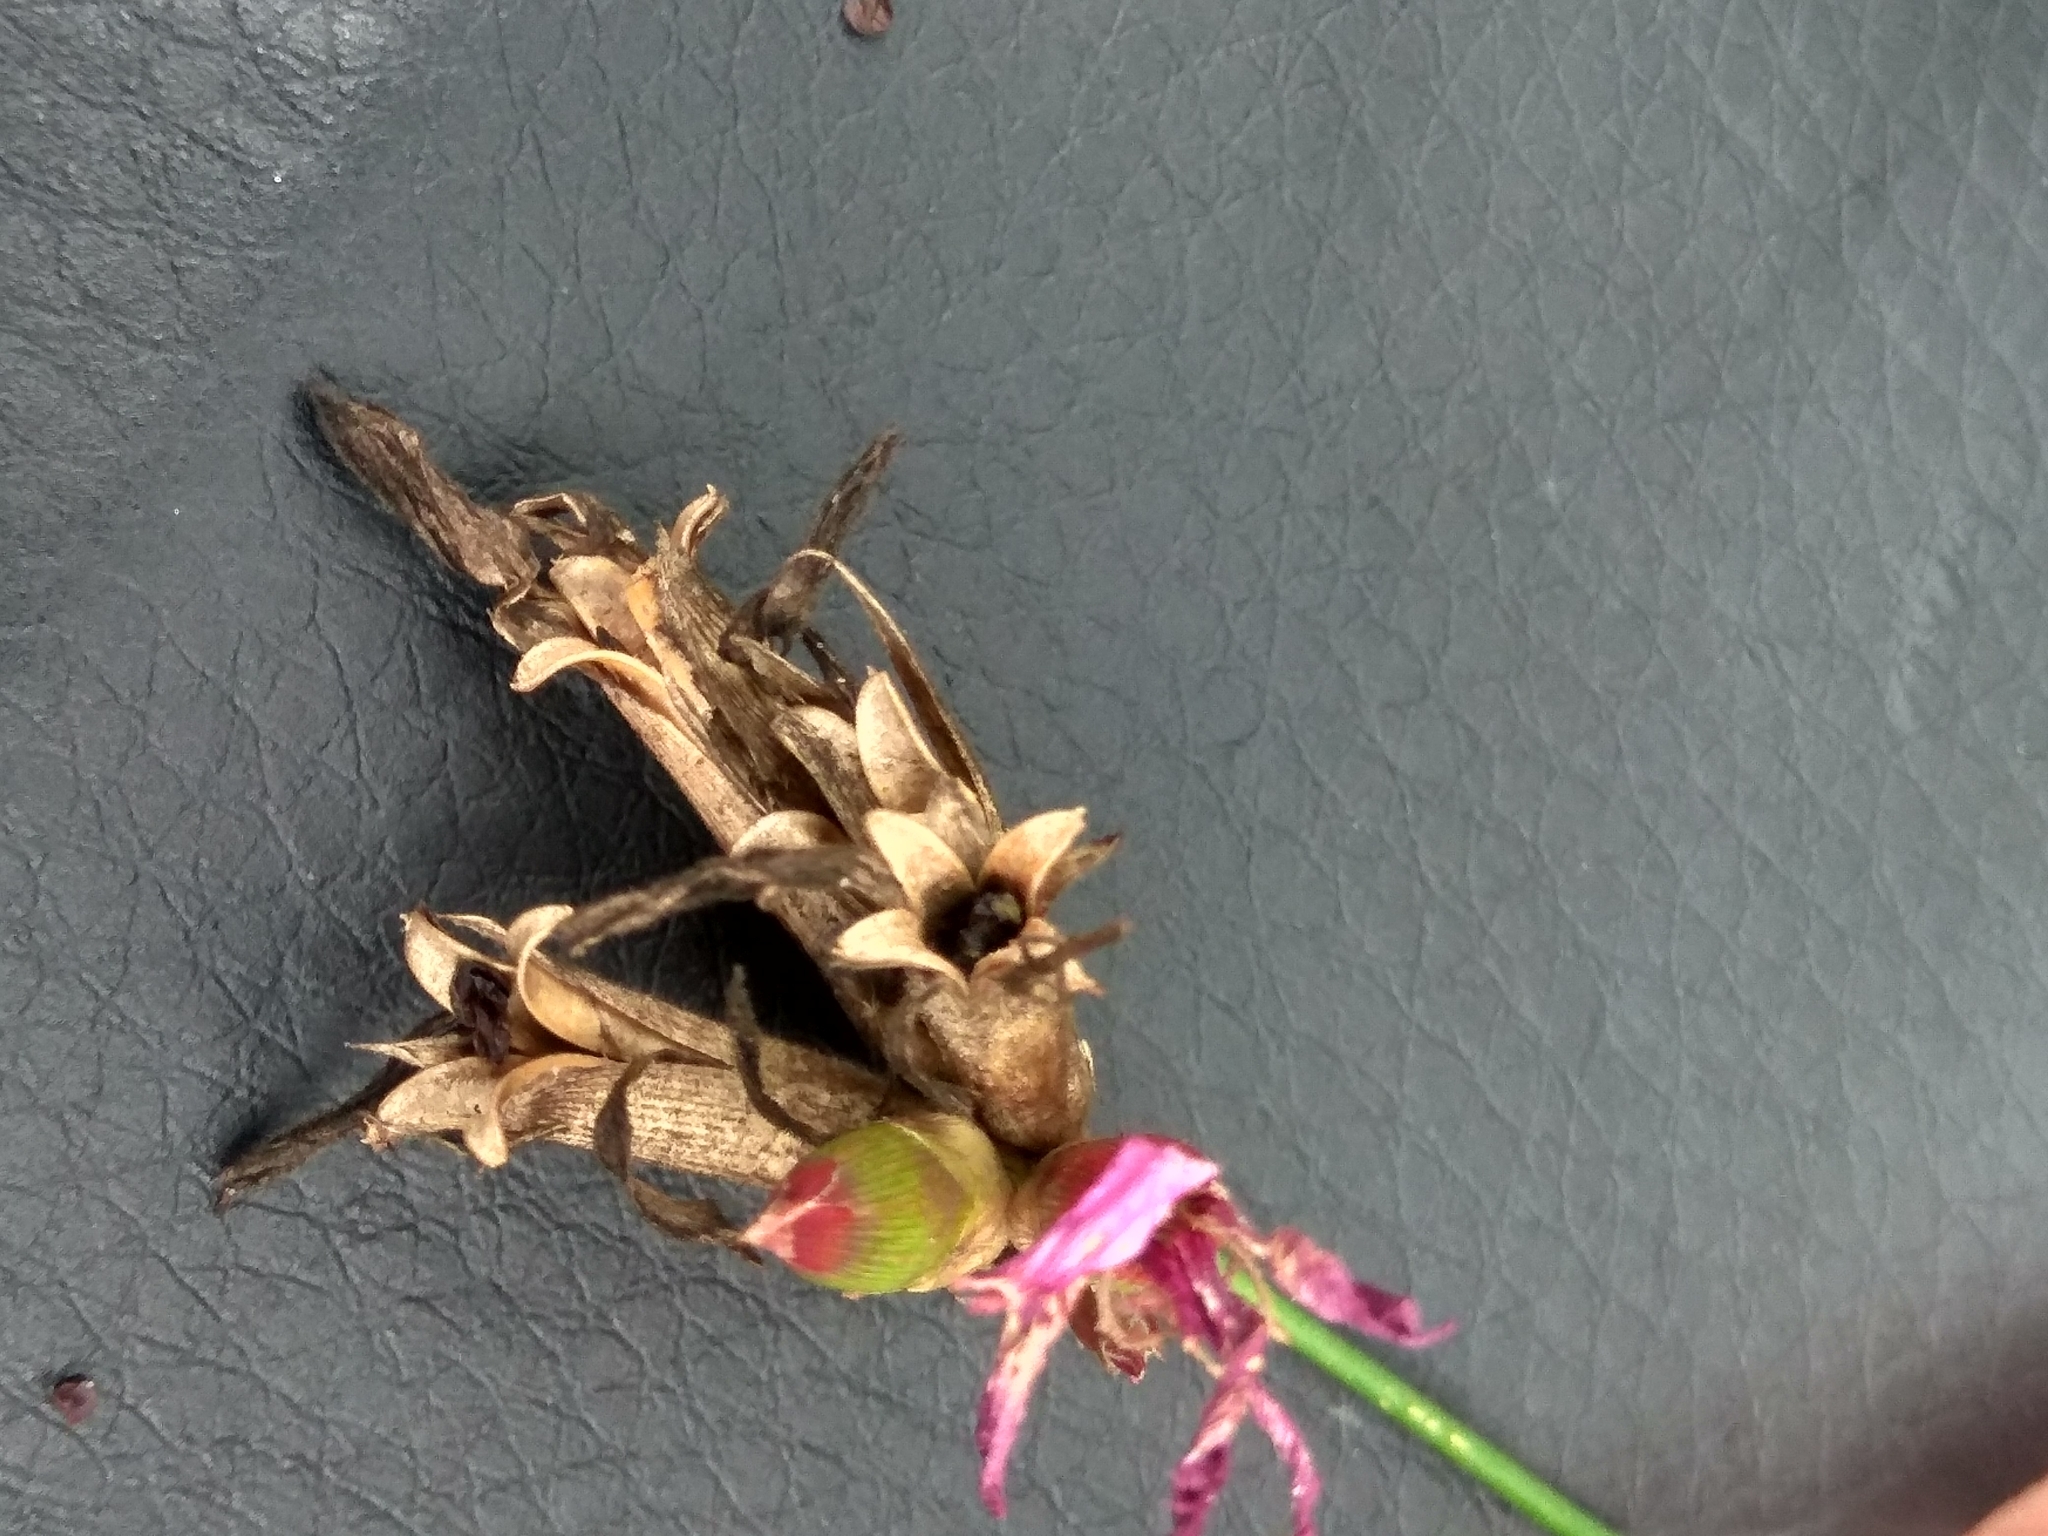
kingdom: Plantae
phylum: Tracheophyta
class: Magnoliopsida
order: Caryophyllales
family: Caryophyllaceae
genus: Dianthus
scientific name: Dianthus borbasii
